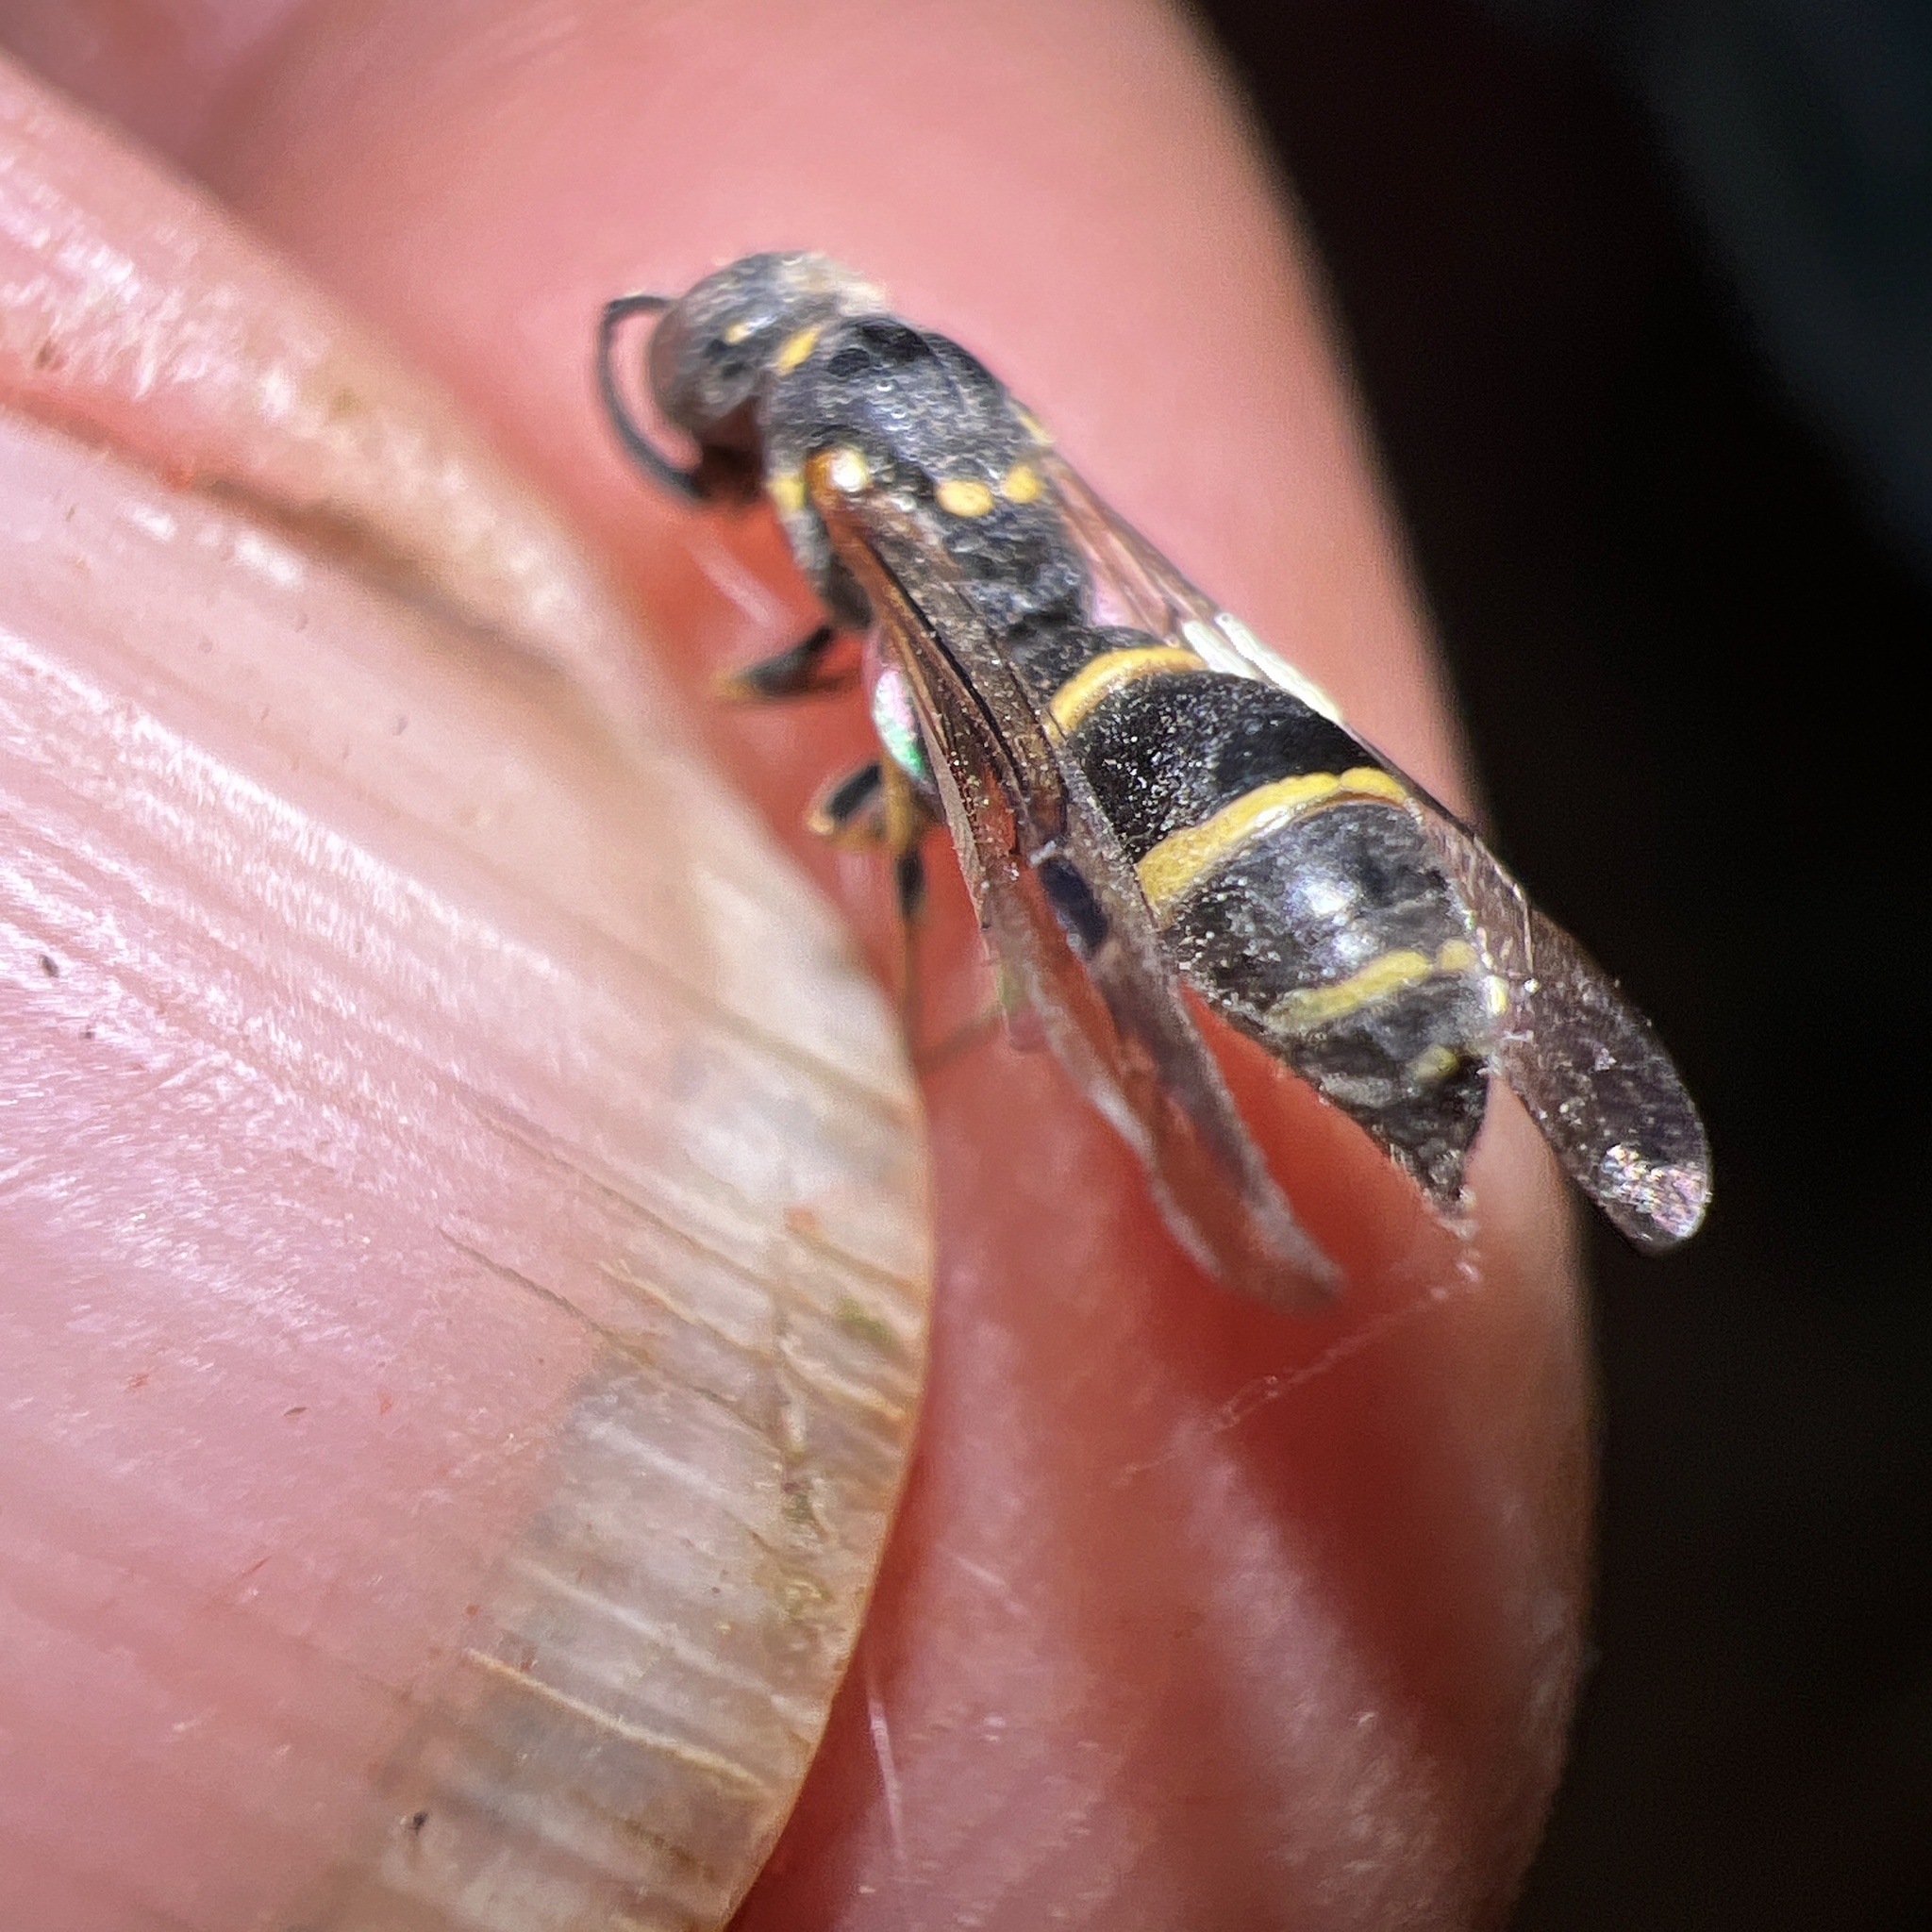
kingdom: Animalia
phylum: Arthropoda
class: Insecta
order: Hymenoptera
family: Eumenidae
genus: Symmorphus
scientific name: Symmorphus canadensis
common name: Canadian potter wasp
